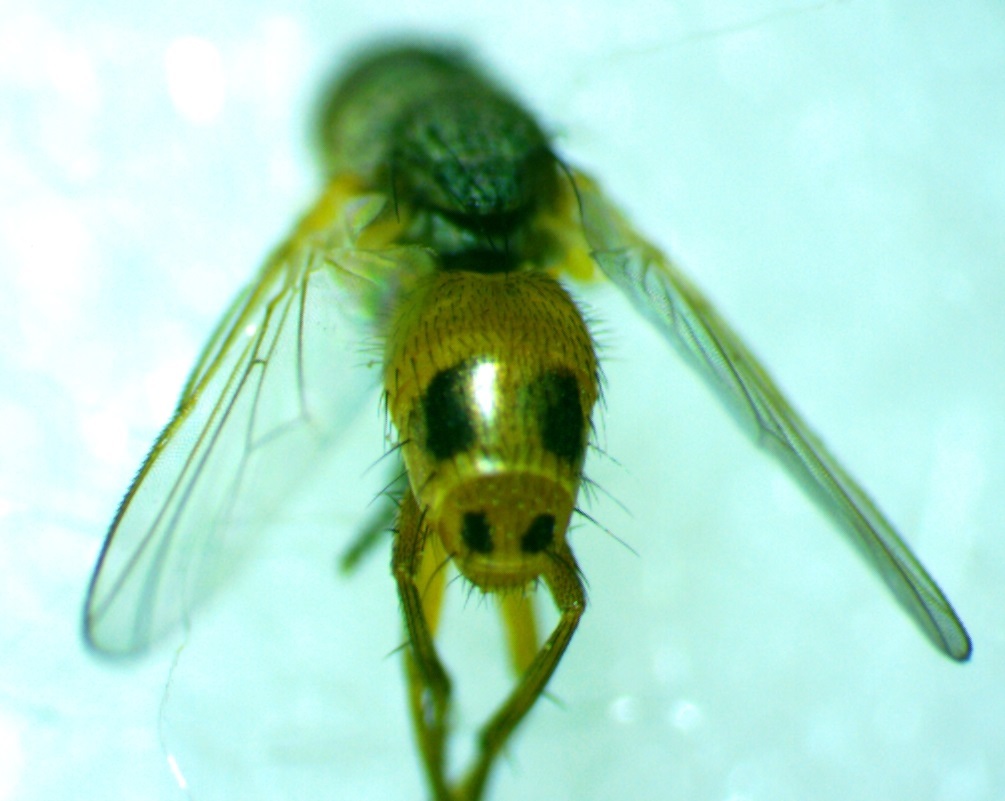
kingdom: Animalia
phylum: Arthropoda
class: Insecta
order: Diptera
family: Muscidae
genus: Atherigona
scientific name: Atherigona reversura
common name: Bermudagrass stem maggot
